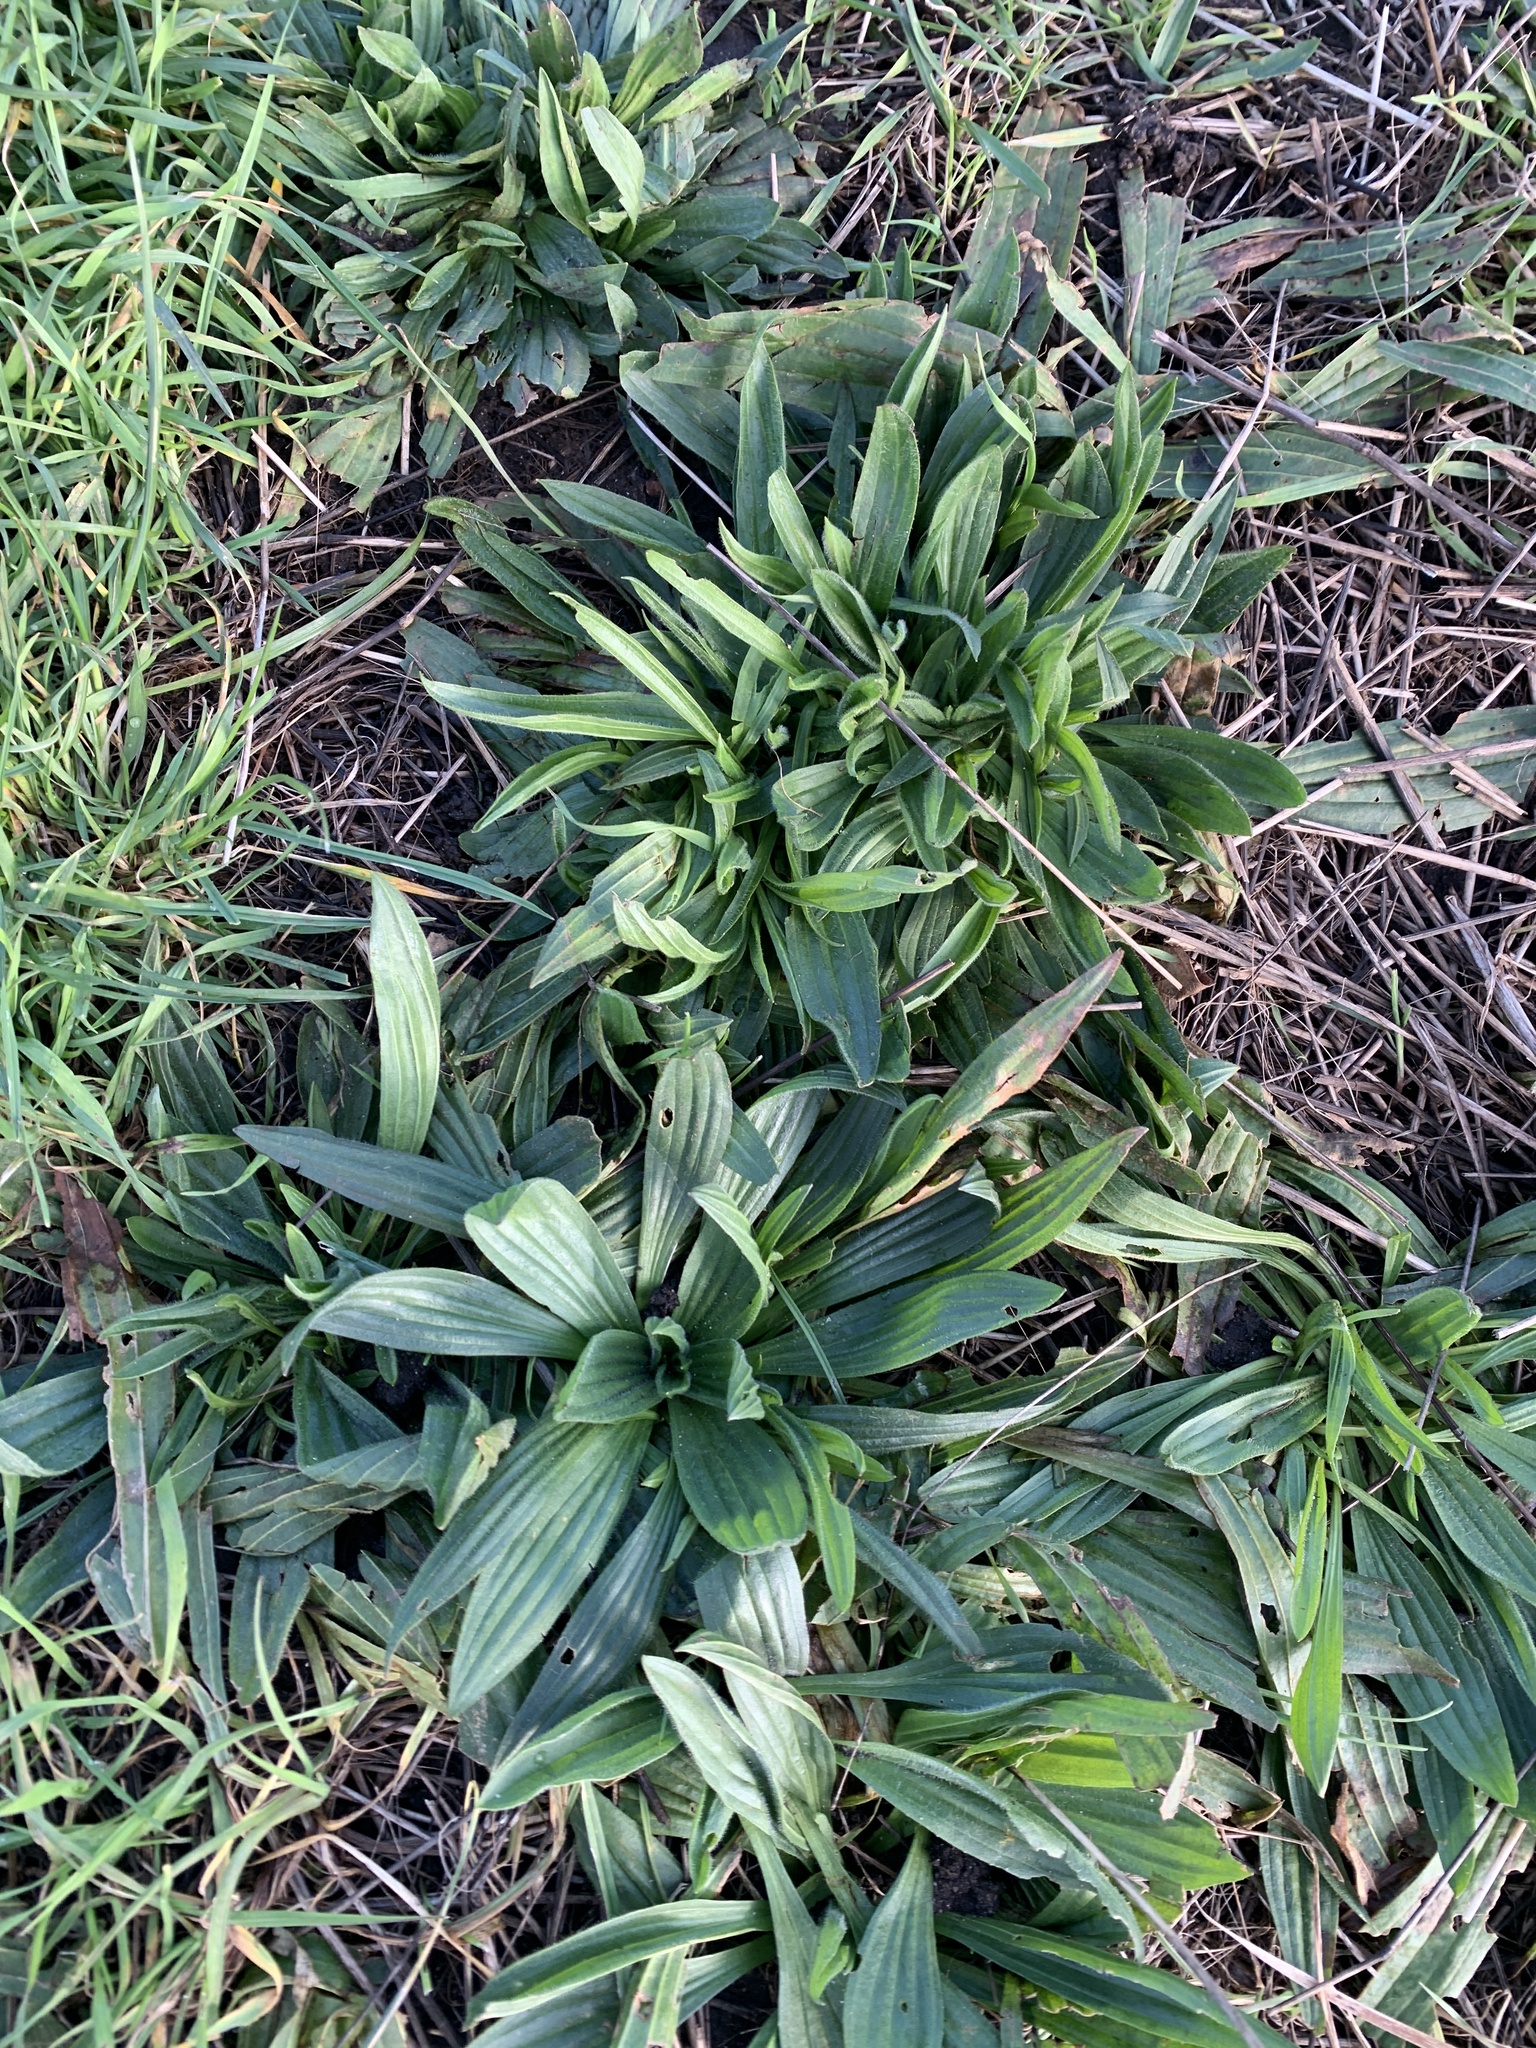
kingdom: Plantae
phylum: Tracheophyta
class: Magnoliopsida
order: Lamiales
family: Plantaginaceae
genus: Plantago
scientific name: Plantago lanceolata
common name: Ribwort plantain
